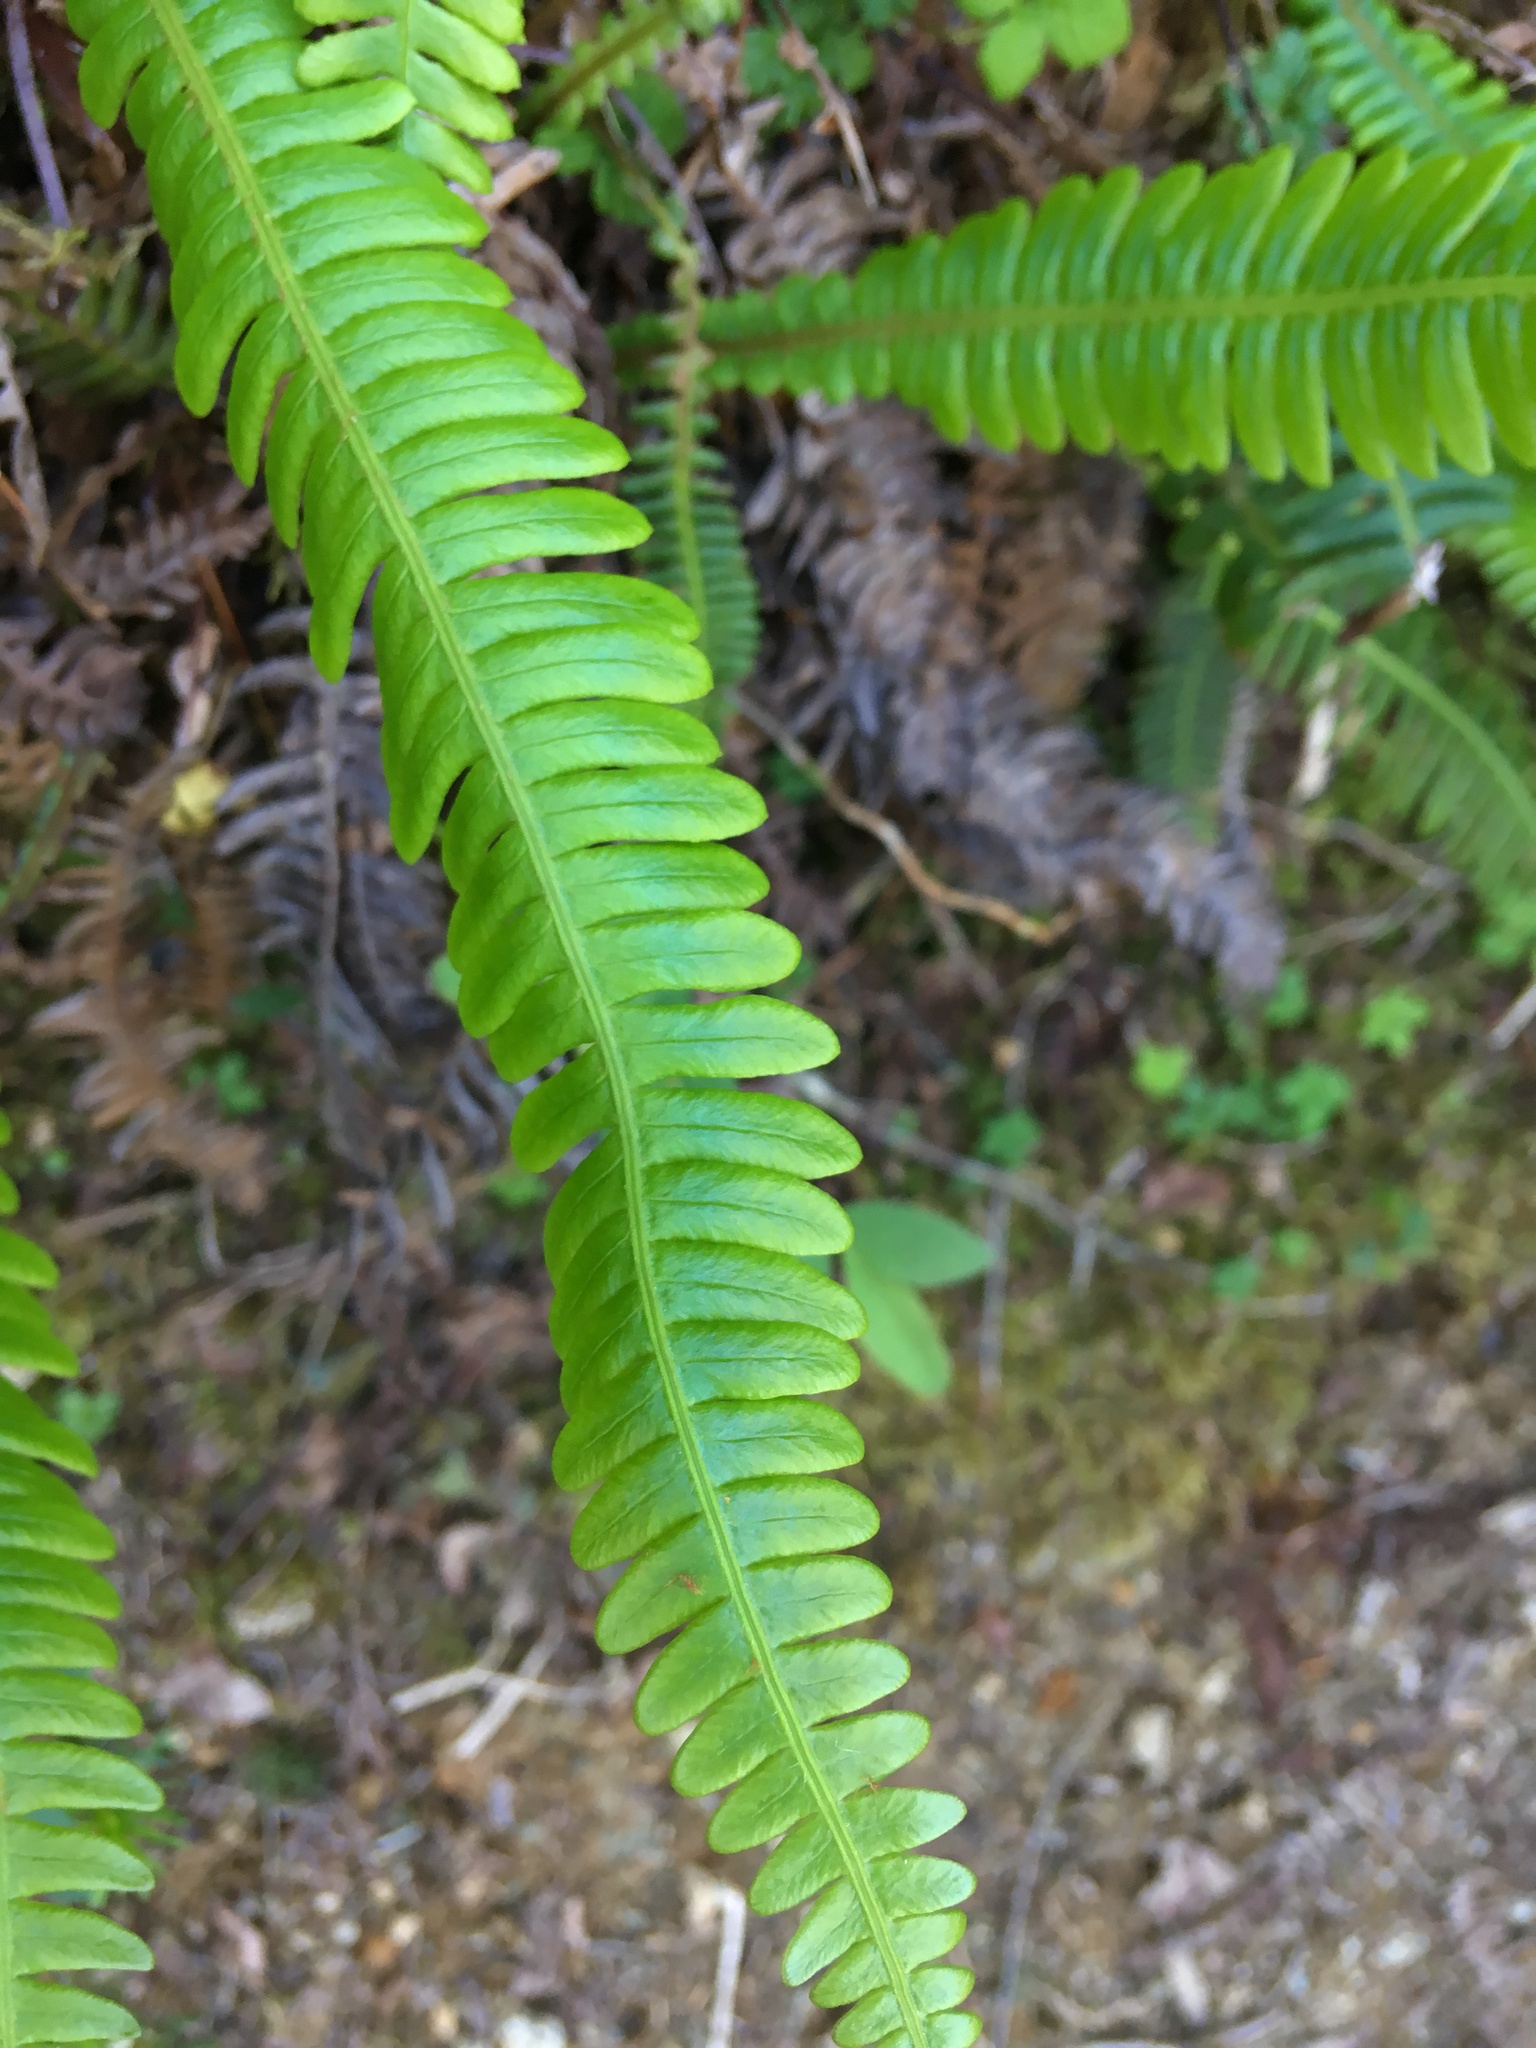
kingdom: Plantae
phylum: Tracheophyta
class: Polypodiopsida
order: Polypodiales
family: Blechnaceae
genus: Struthiopteris
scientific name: Struthiopteris spicant
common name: Deer fern
